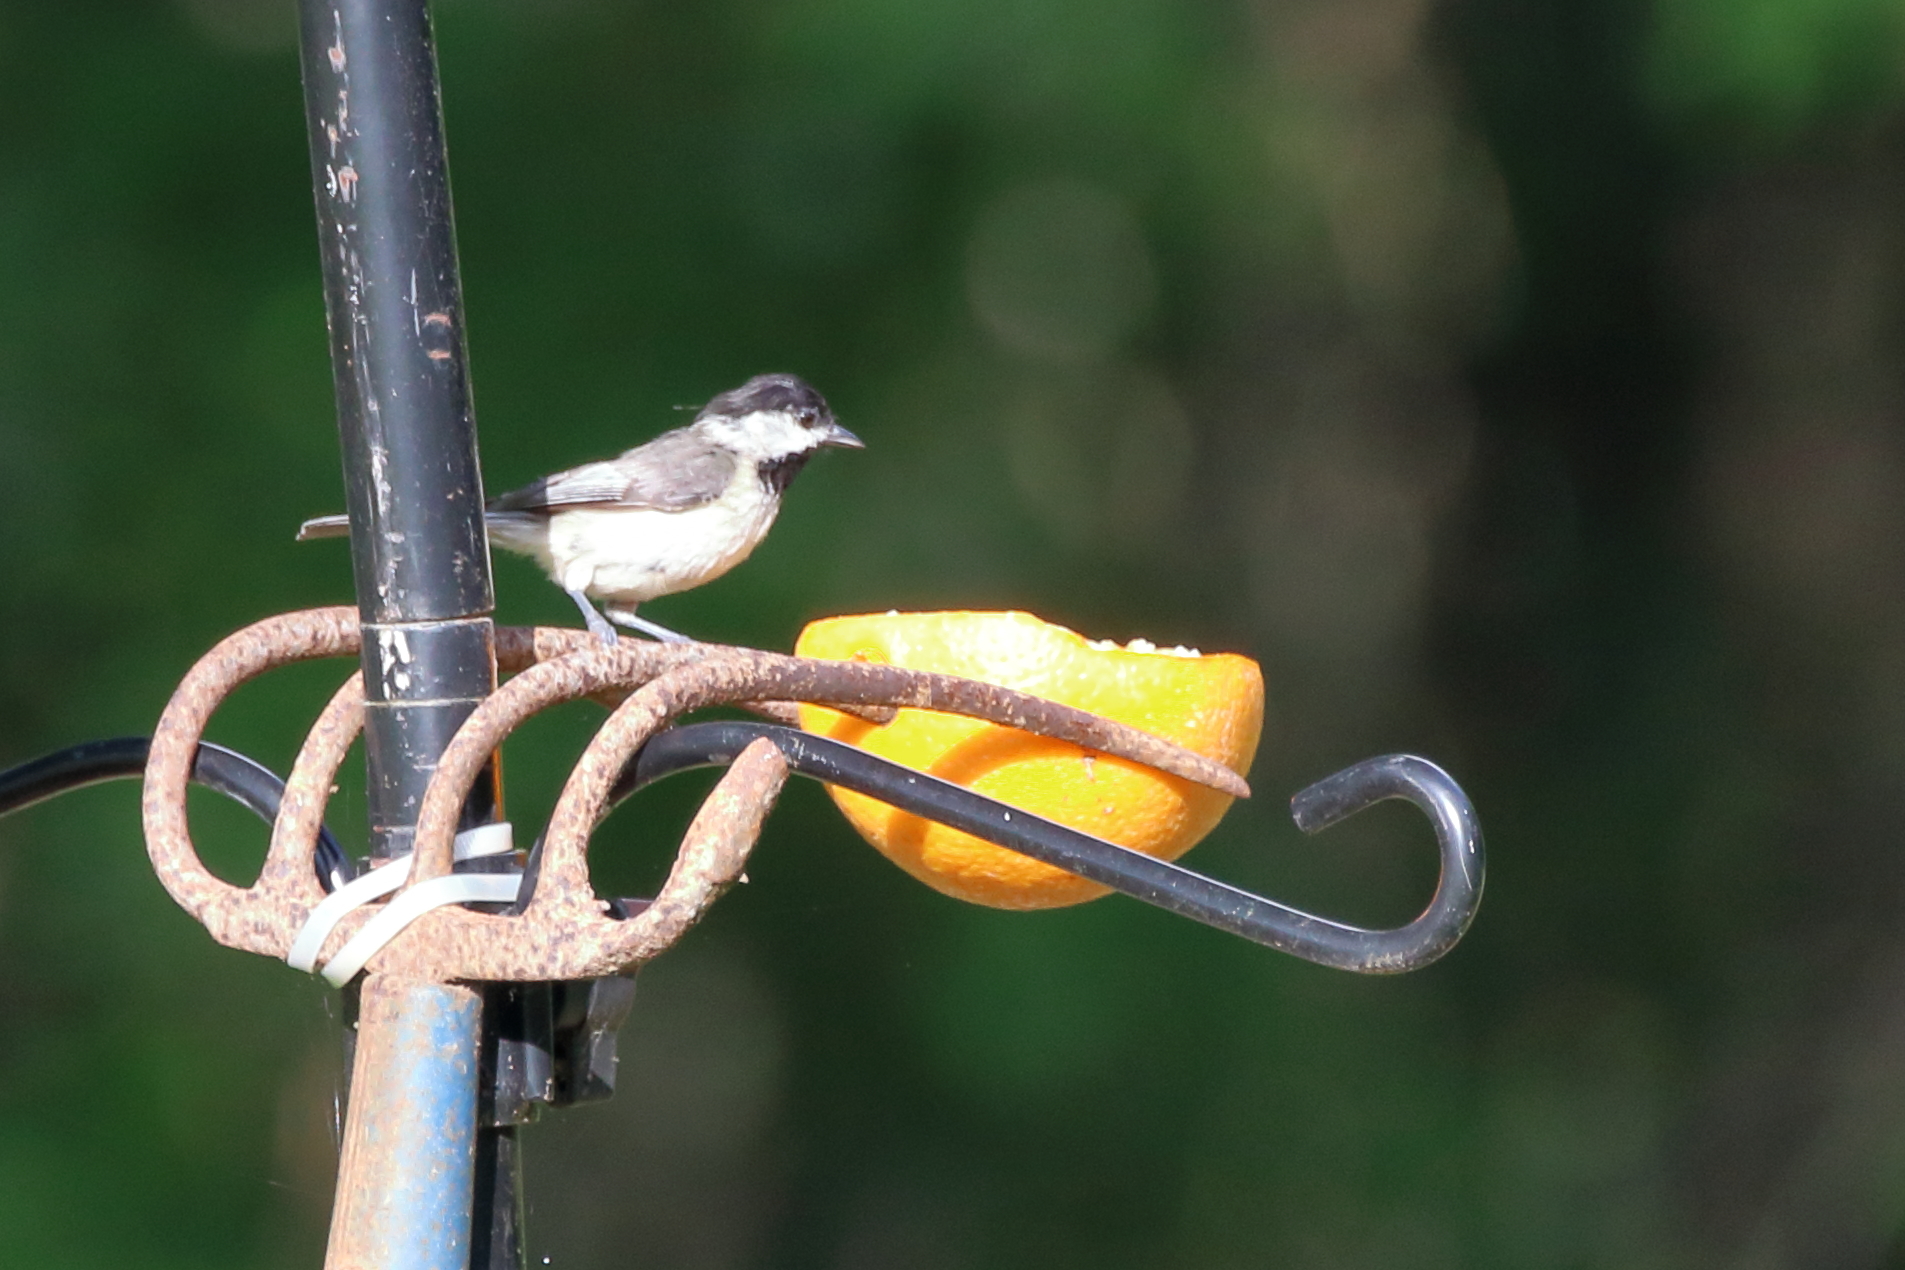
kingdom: Animalia
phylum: Chordata
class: Aves
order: Passeriformes
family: Paridae
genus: Poecile
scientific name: Poecile carolinensis
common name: Carolina chickadee
